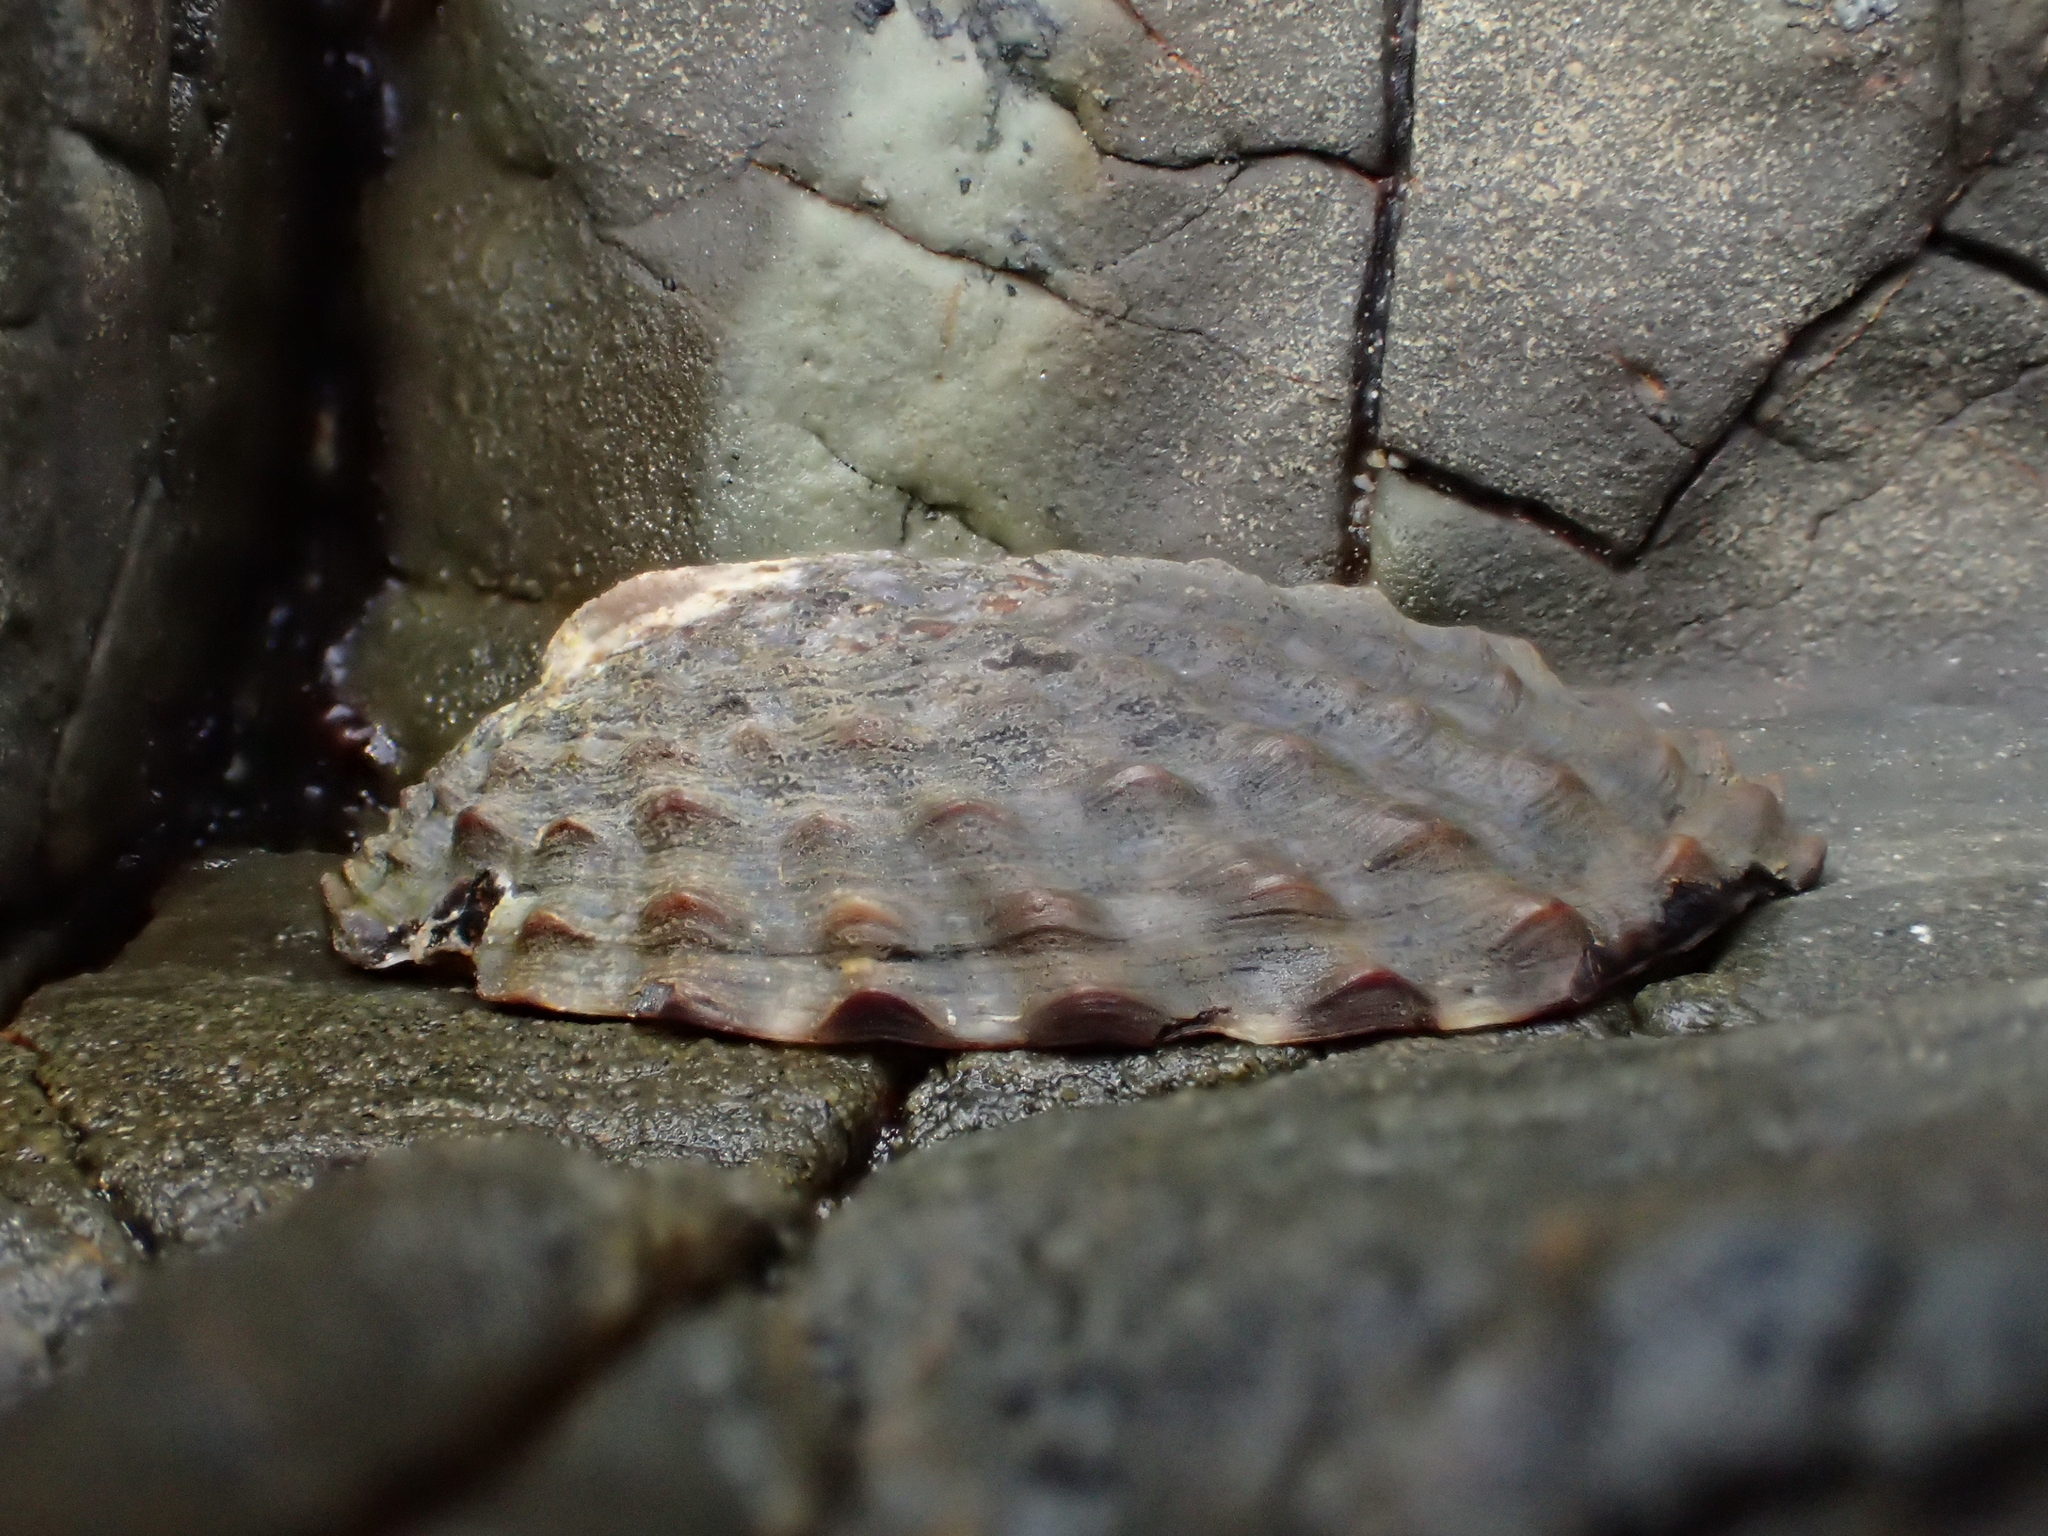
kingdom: Animalia
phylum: Mollusca
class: Gastropoda
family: Nacellidae
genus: Cellana
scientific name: Cellana denticulata
